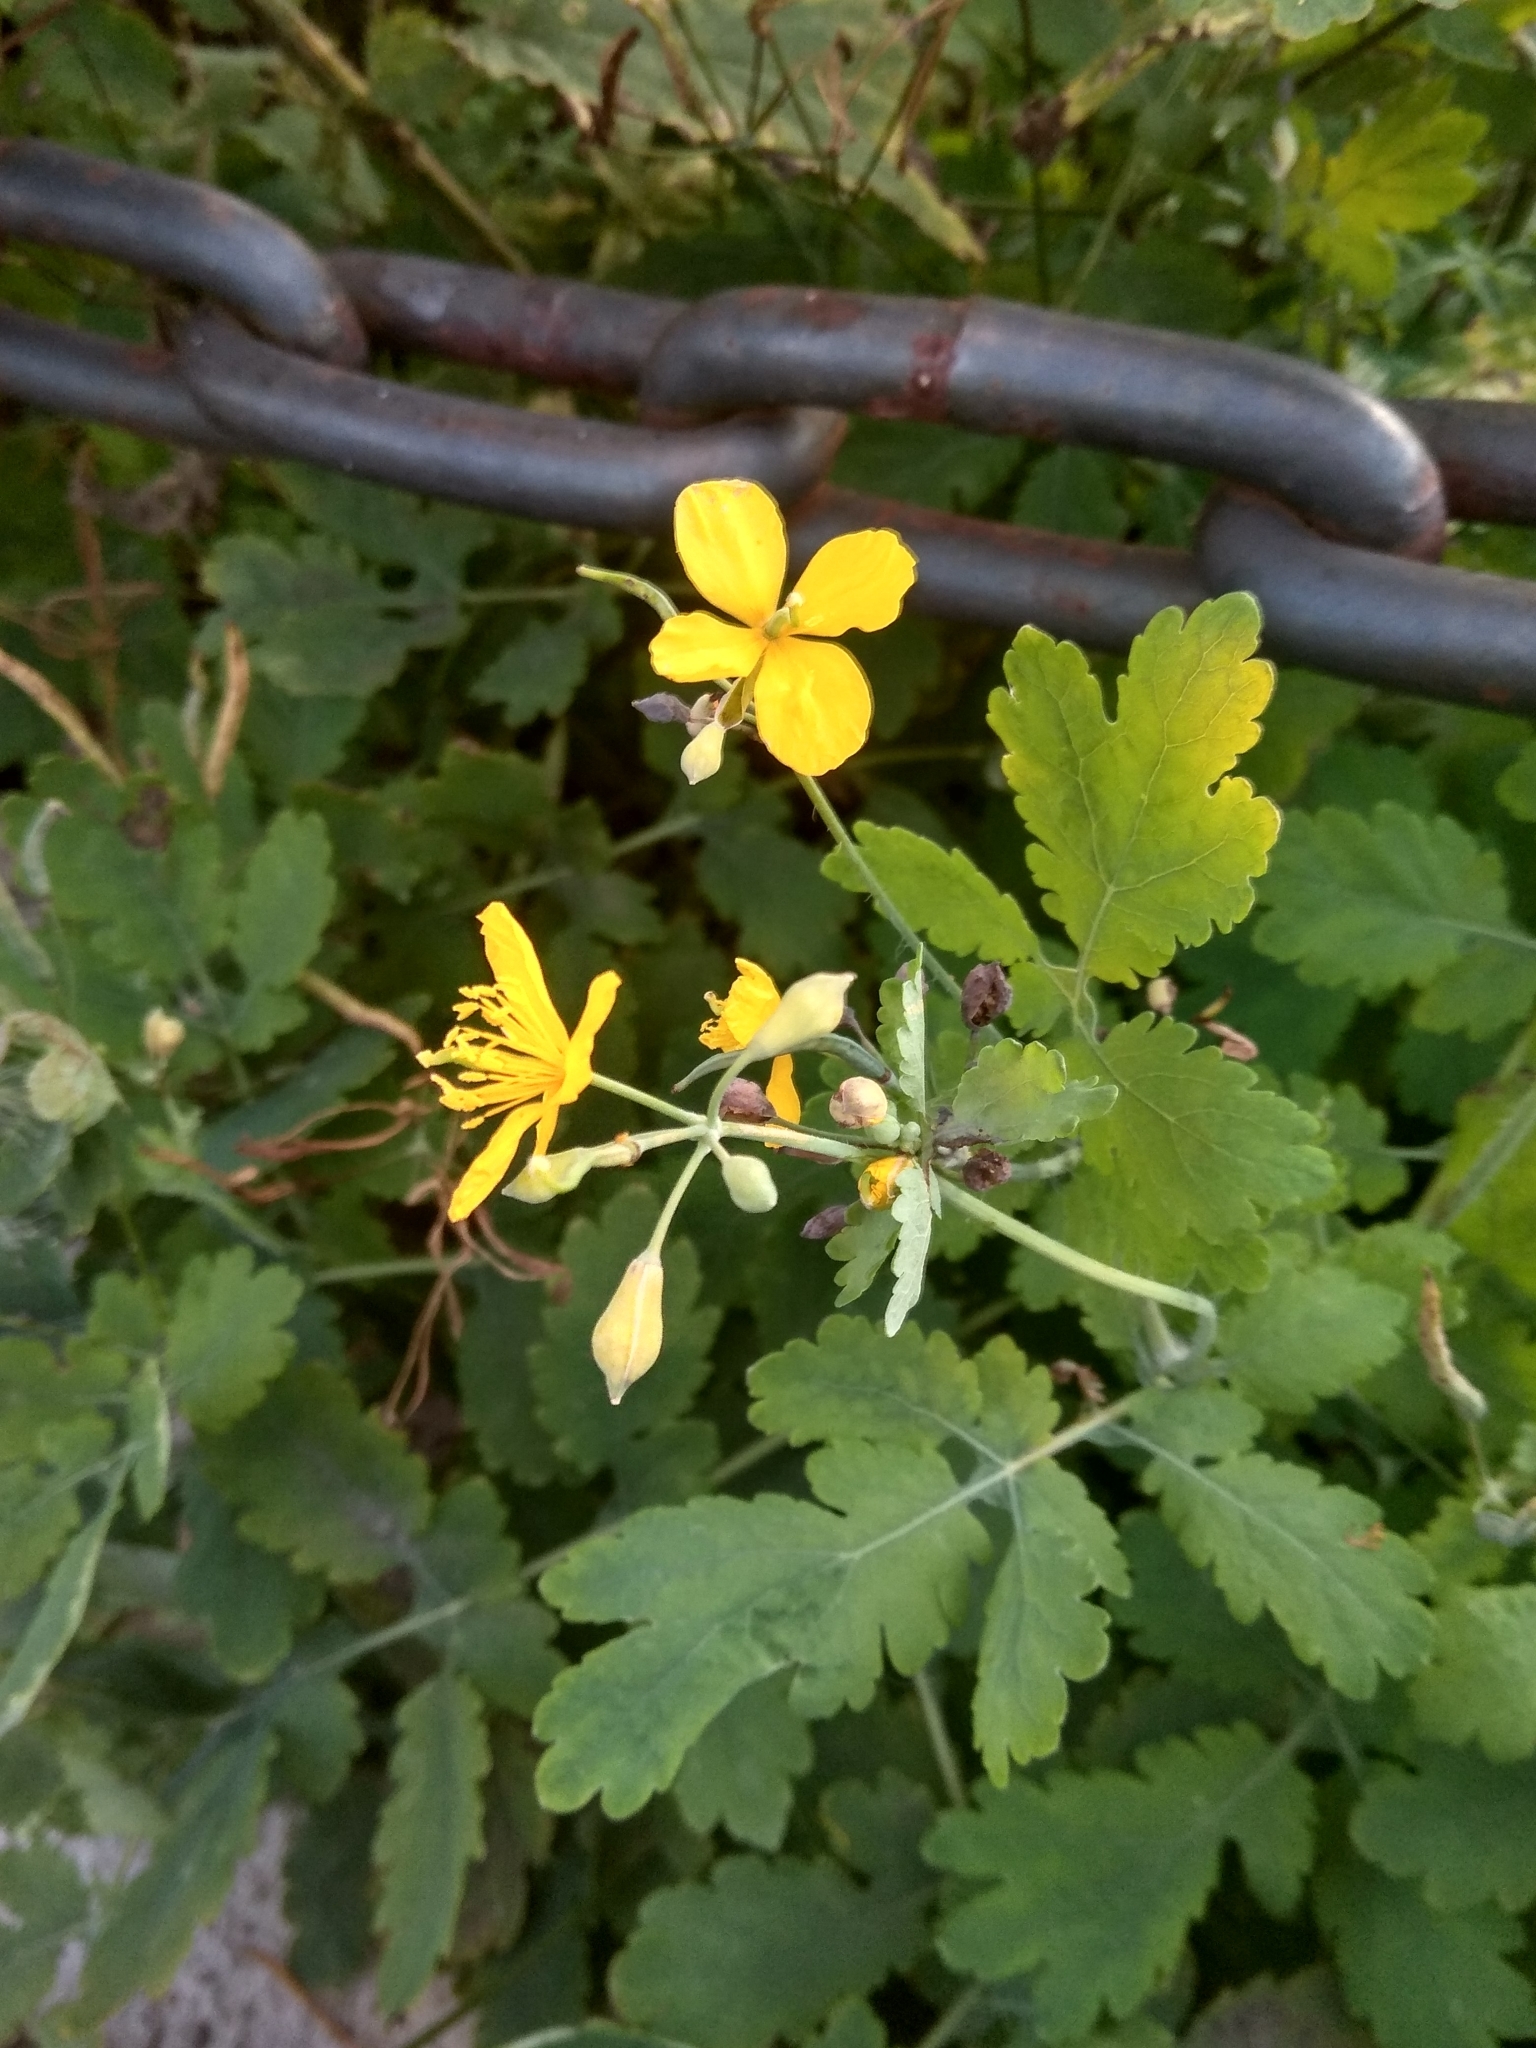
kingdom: Plantae
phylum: Tracheophyta
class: Magnoliopsida
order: Ranunculales
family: Papaveraceae
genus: Chelidonium
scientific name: Chelidonium majus
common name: Greater celandine
